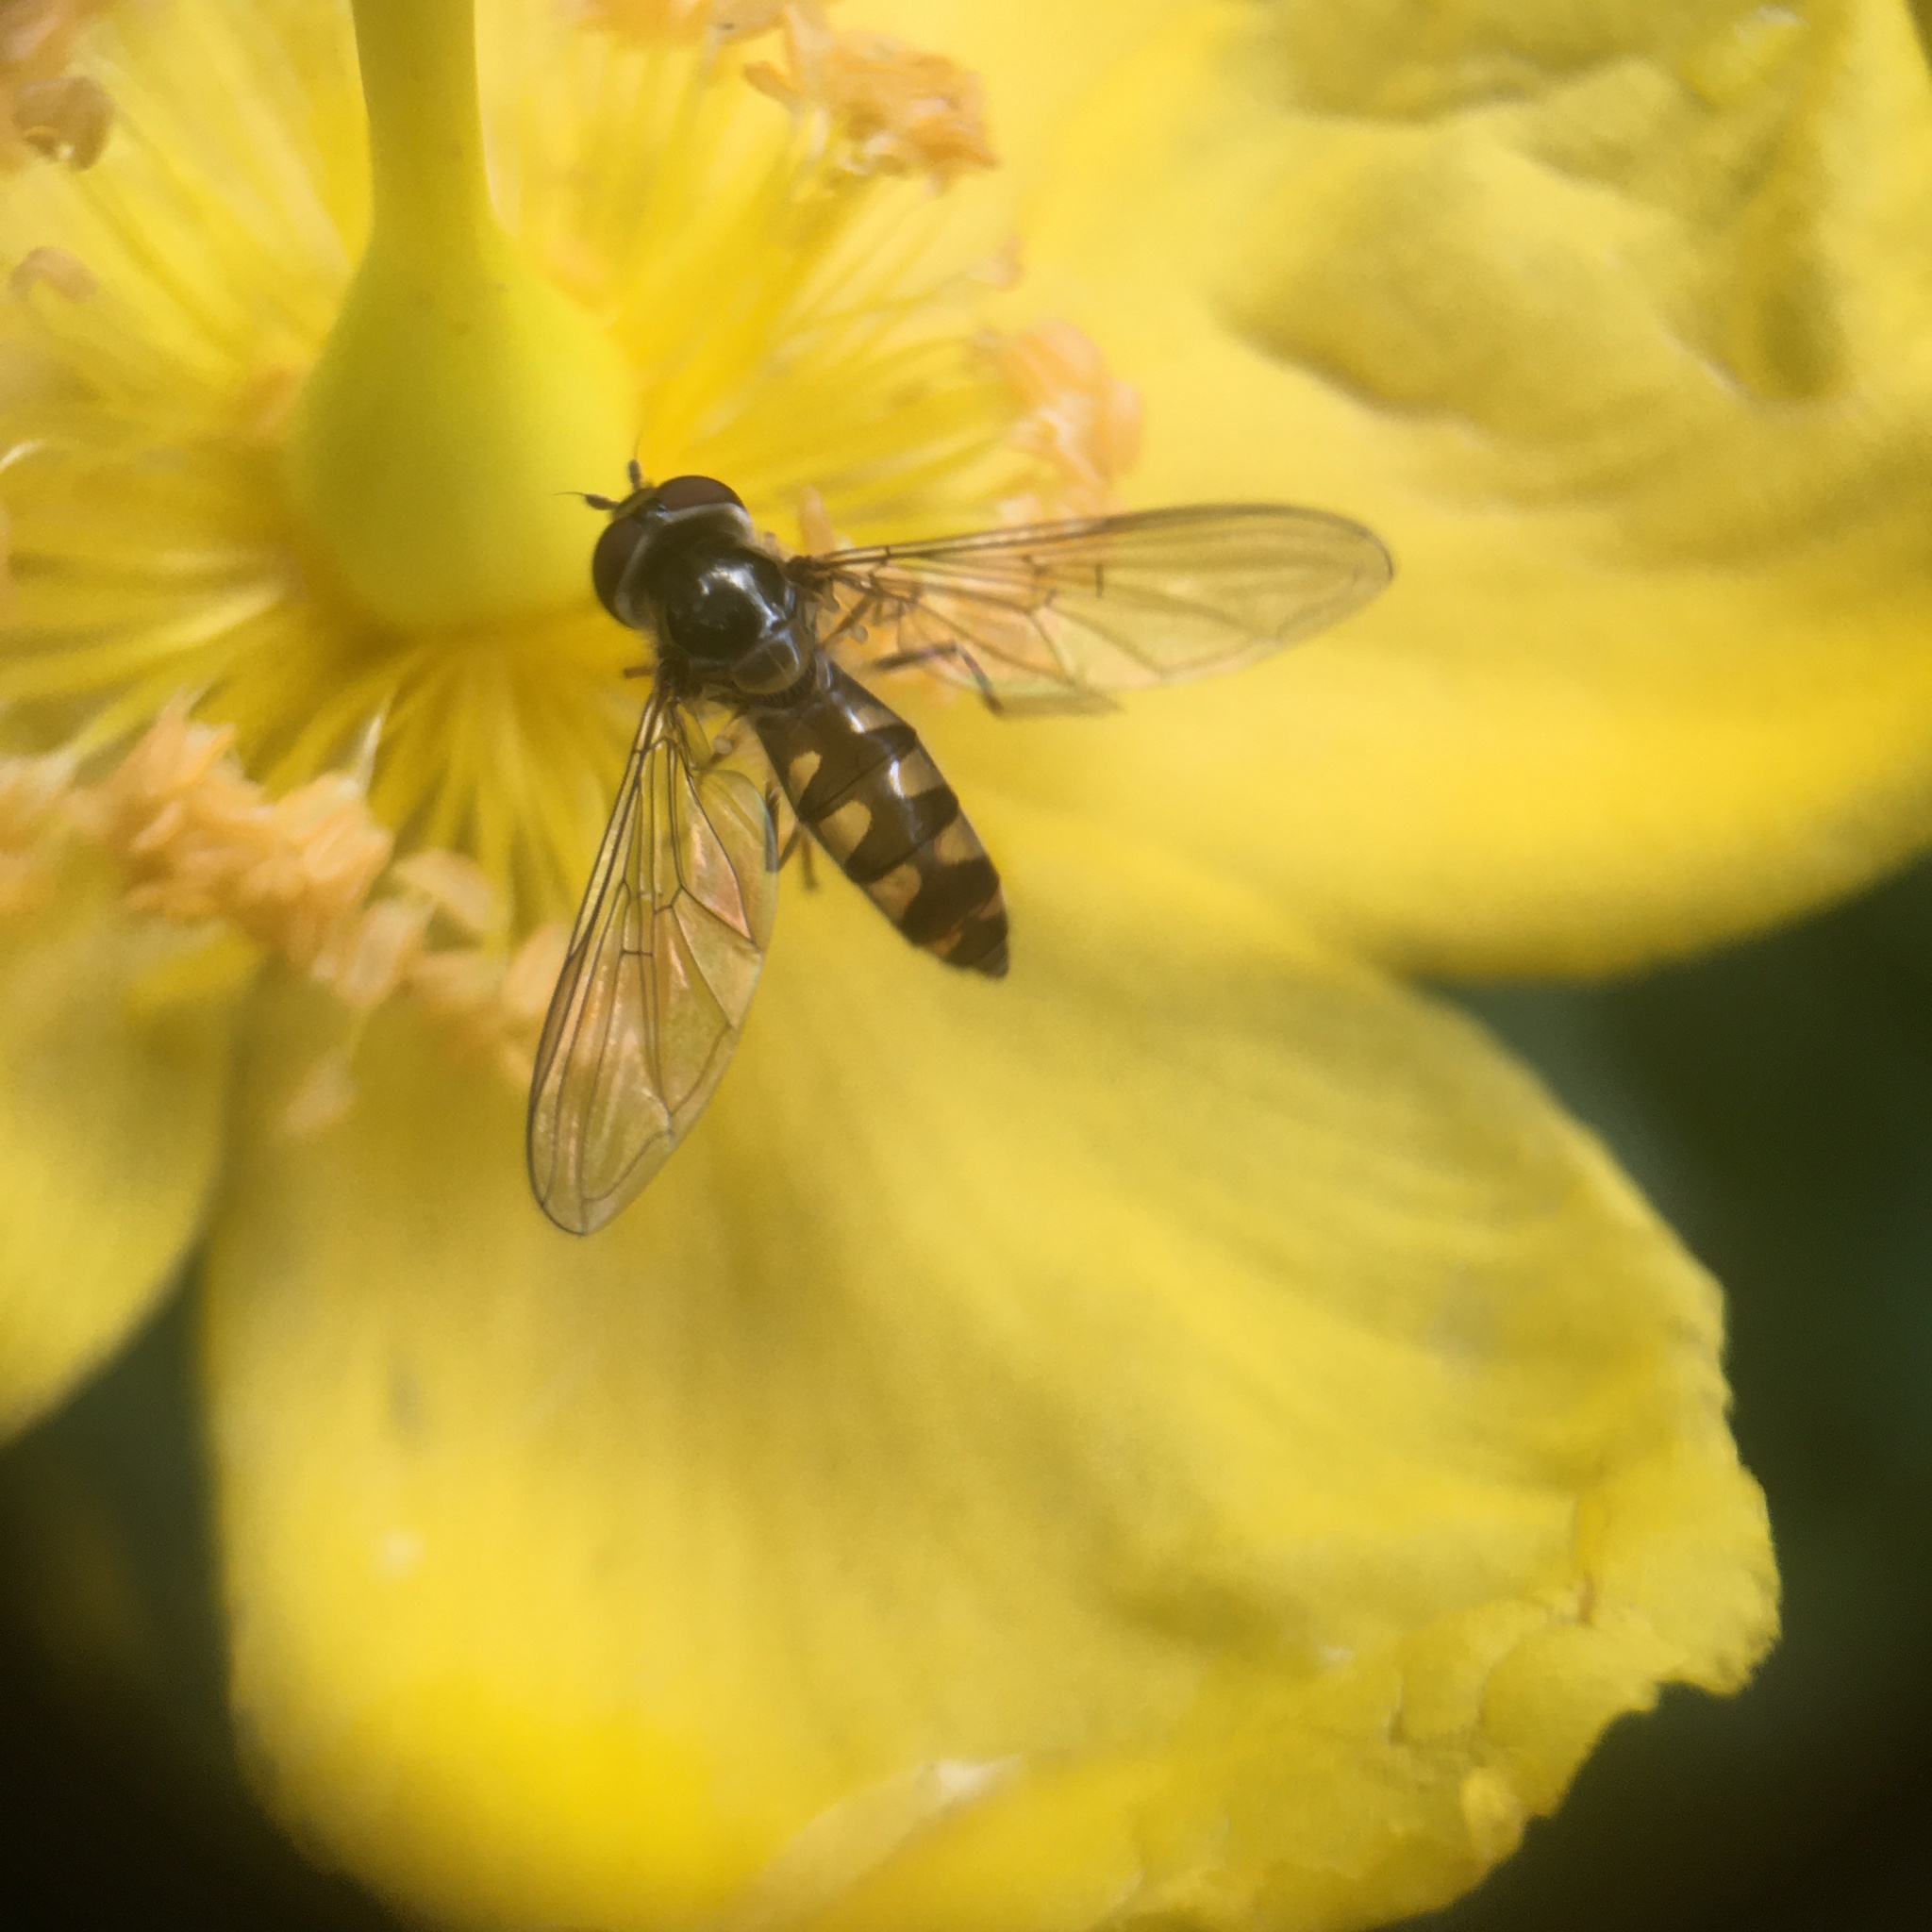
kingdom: Animalia
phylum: Arthropoda
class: Insecta
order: Diptera
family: Syrphidae
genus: Meliscaeva
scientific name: Meliscaeva auricollis
